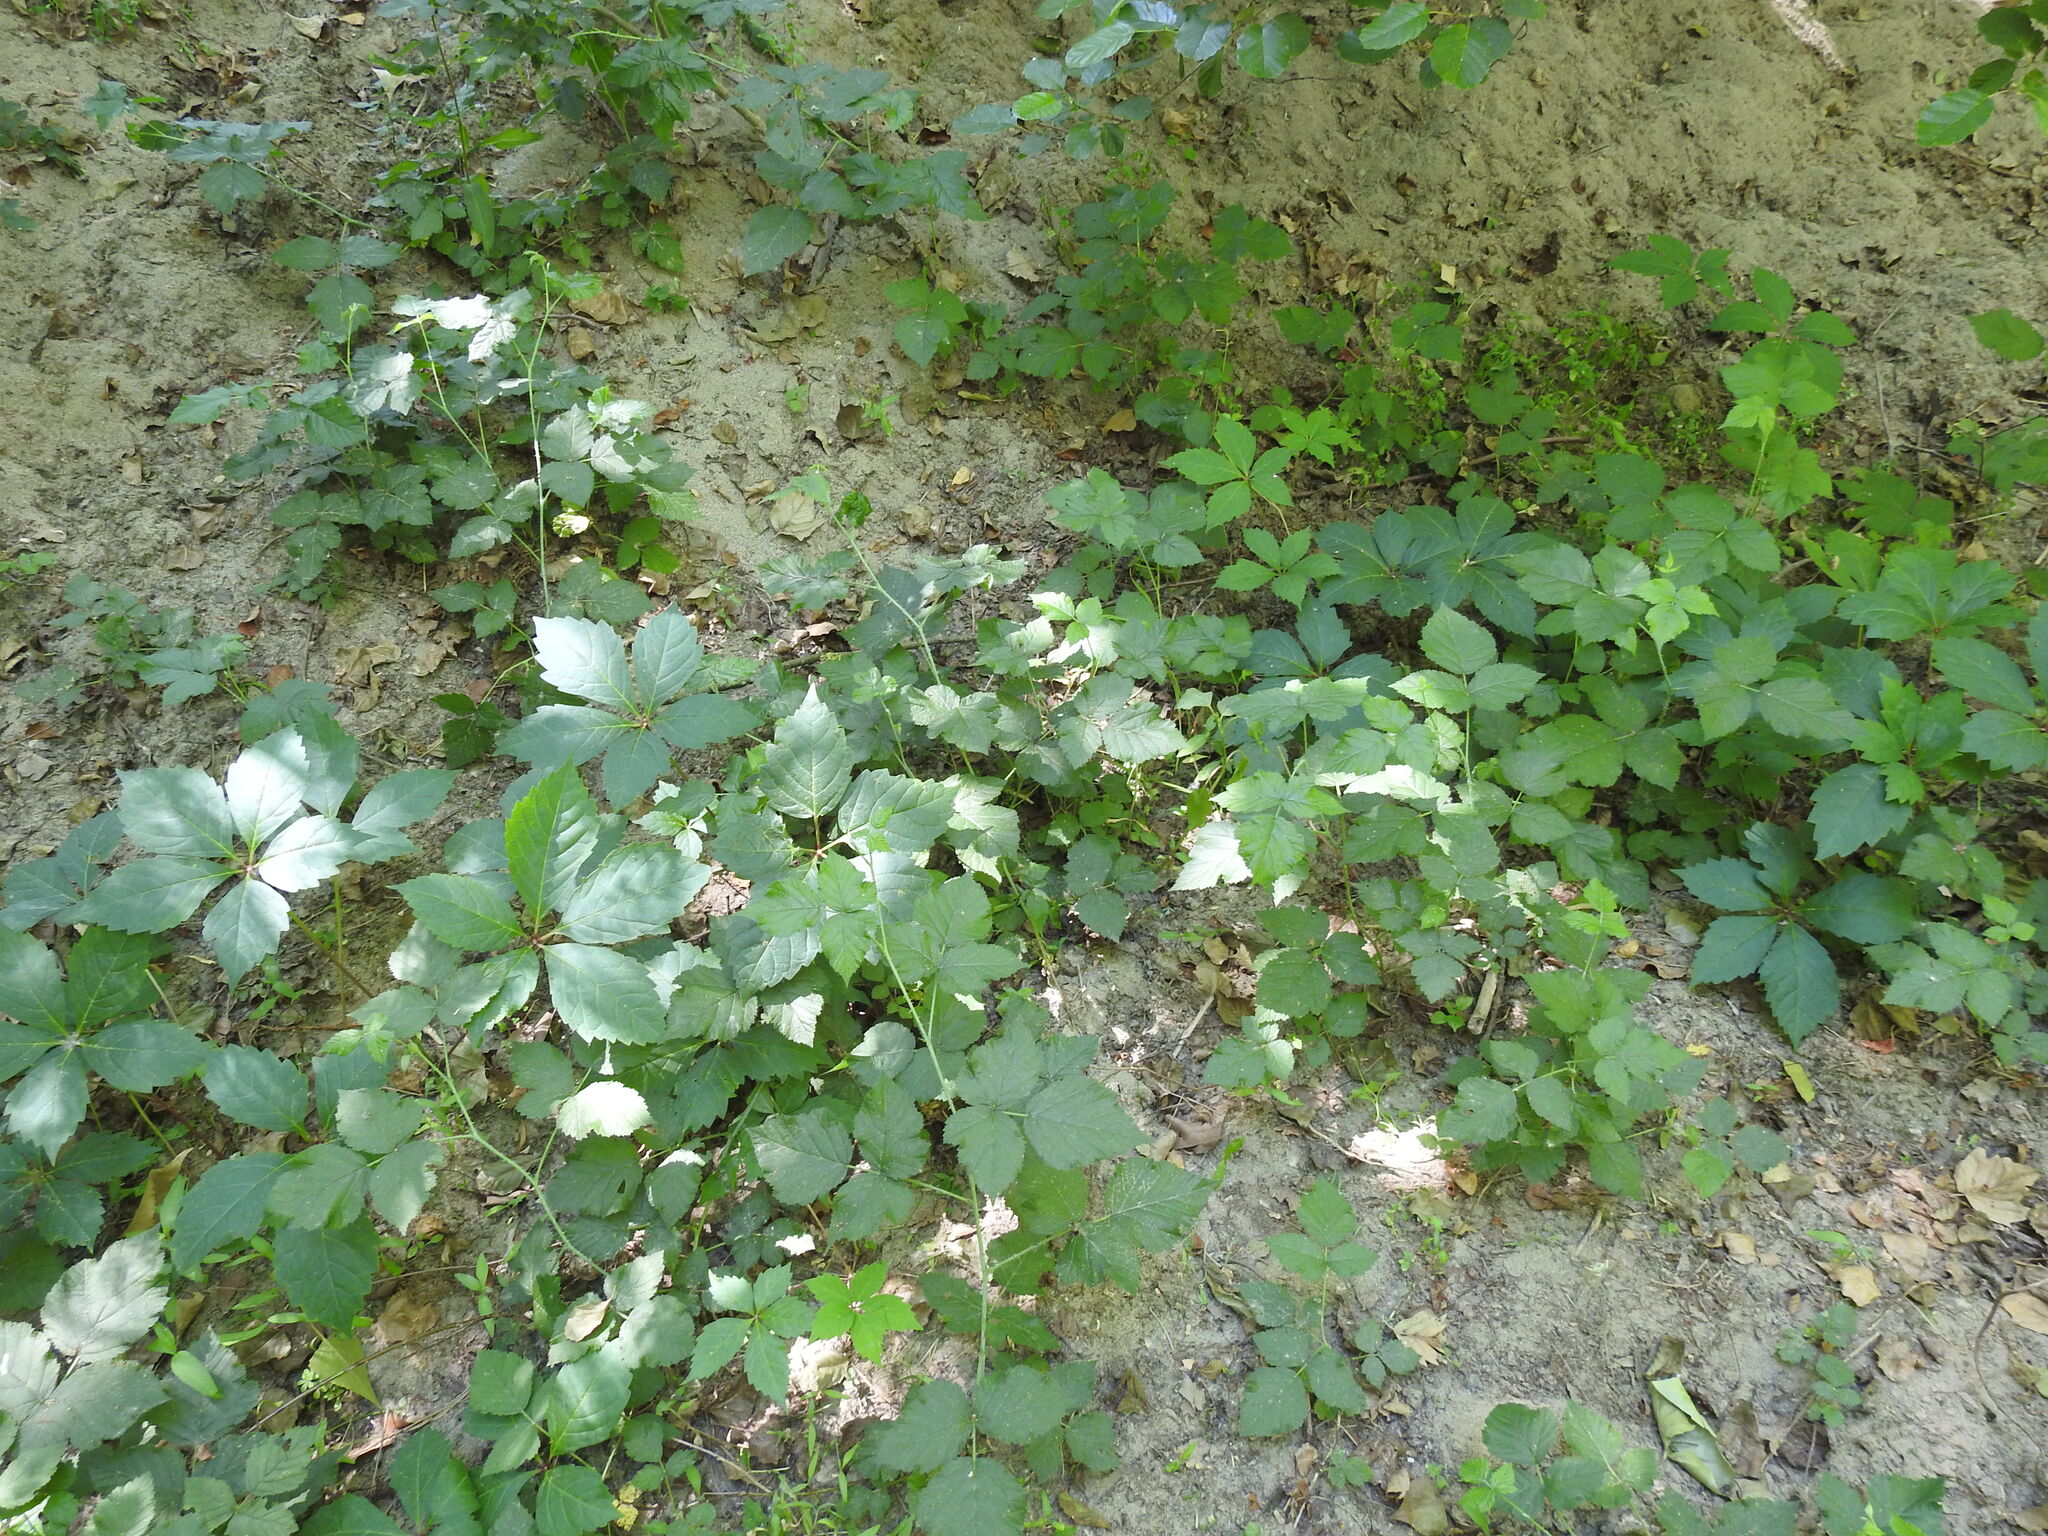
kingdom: Plantae
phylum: Tracheophyta
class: Magnoliopsida
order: Vitales
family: Vitaceae
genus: Parthenocissus
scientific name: Parthenocissus quinquefolia
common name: Virginia-creeper
